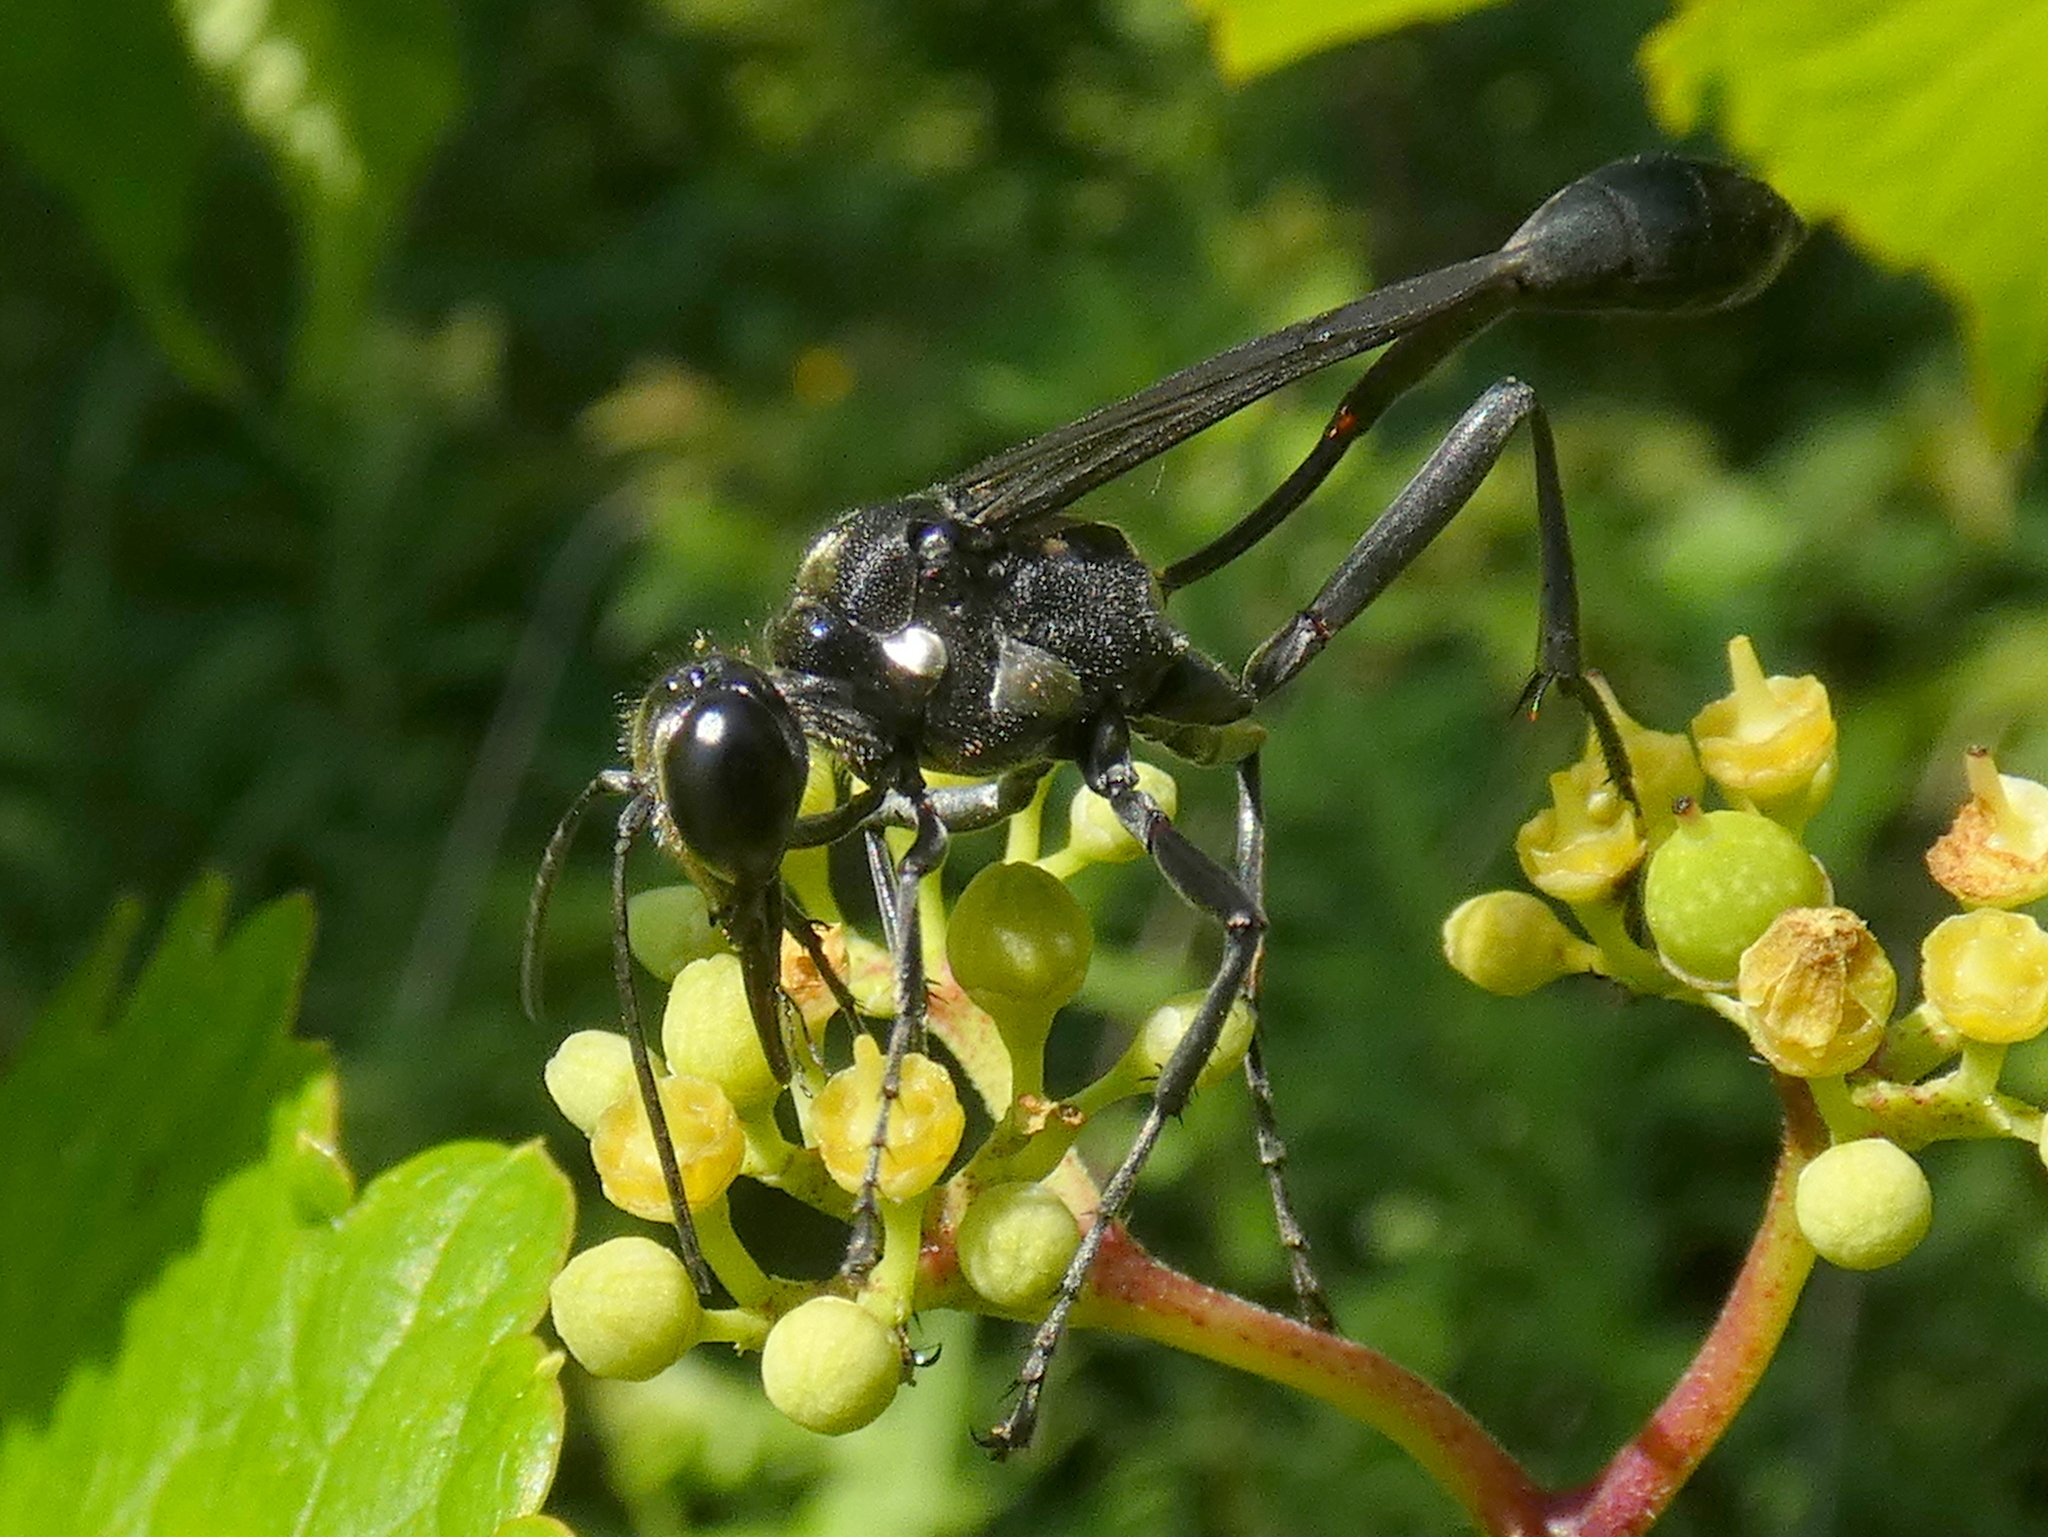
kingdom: Animalia
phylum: Arthropoda
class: Insecta
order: Hymenoptera
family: Sphecidae
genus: Eremnophila
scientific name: Eremnophila aureonotata
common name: Gold-marked thread-waisted wasp
